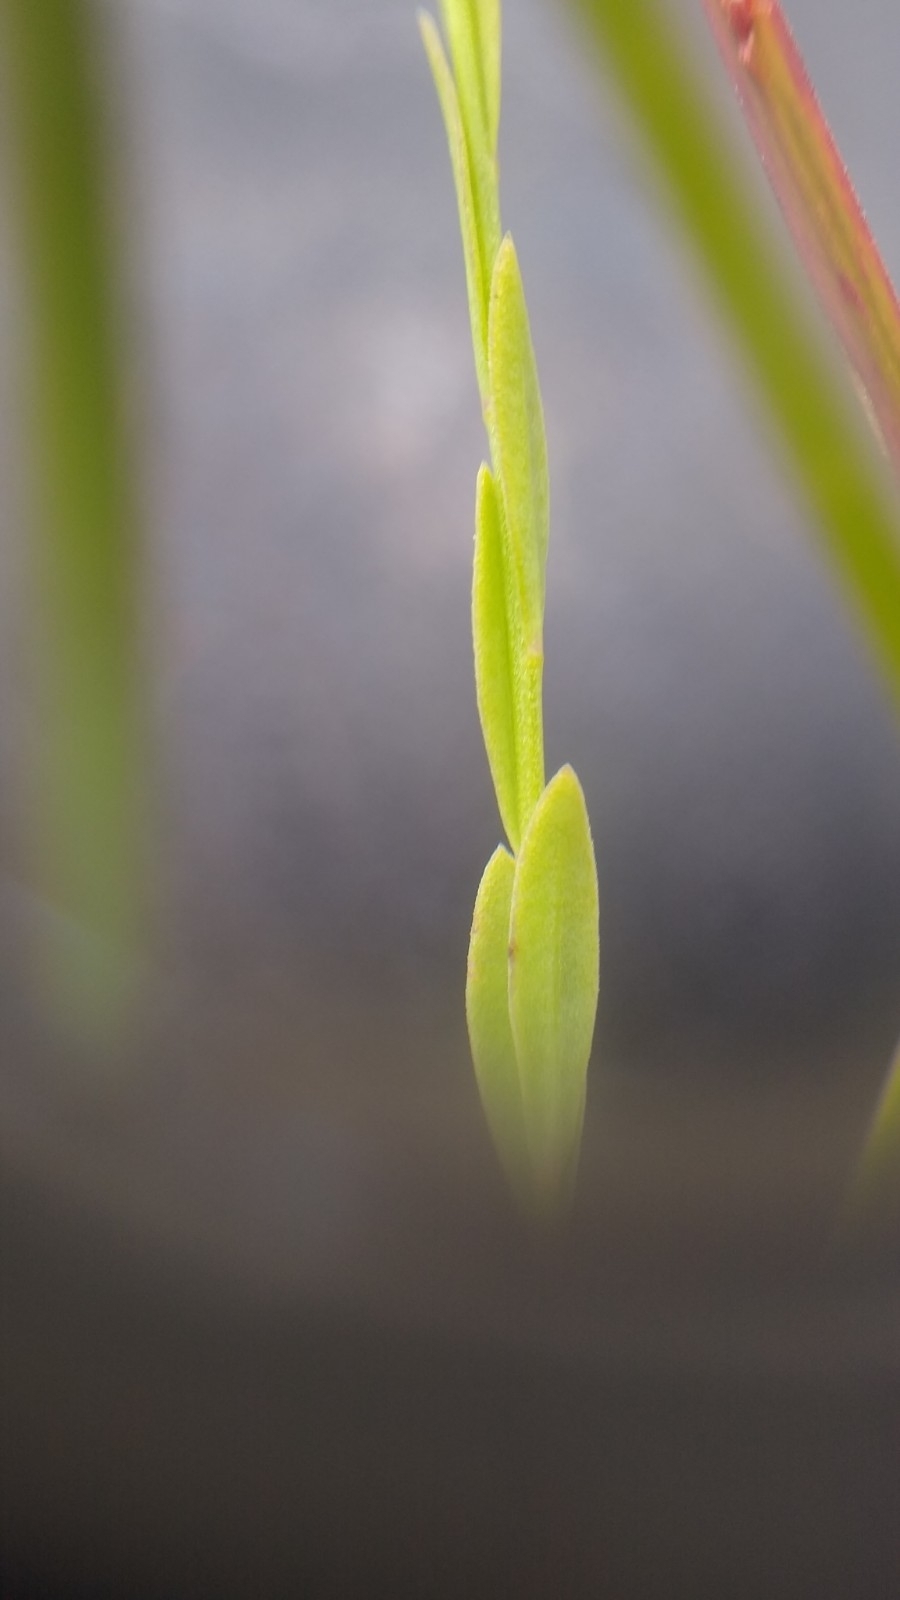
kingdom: Plantae
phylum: Tracheophyta
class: Magnoliopsida
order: Malpighiales
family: Linaceae
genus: Linum
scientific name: Linum intercursum
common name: Sandplain flax
